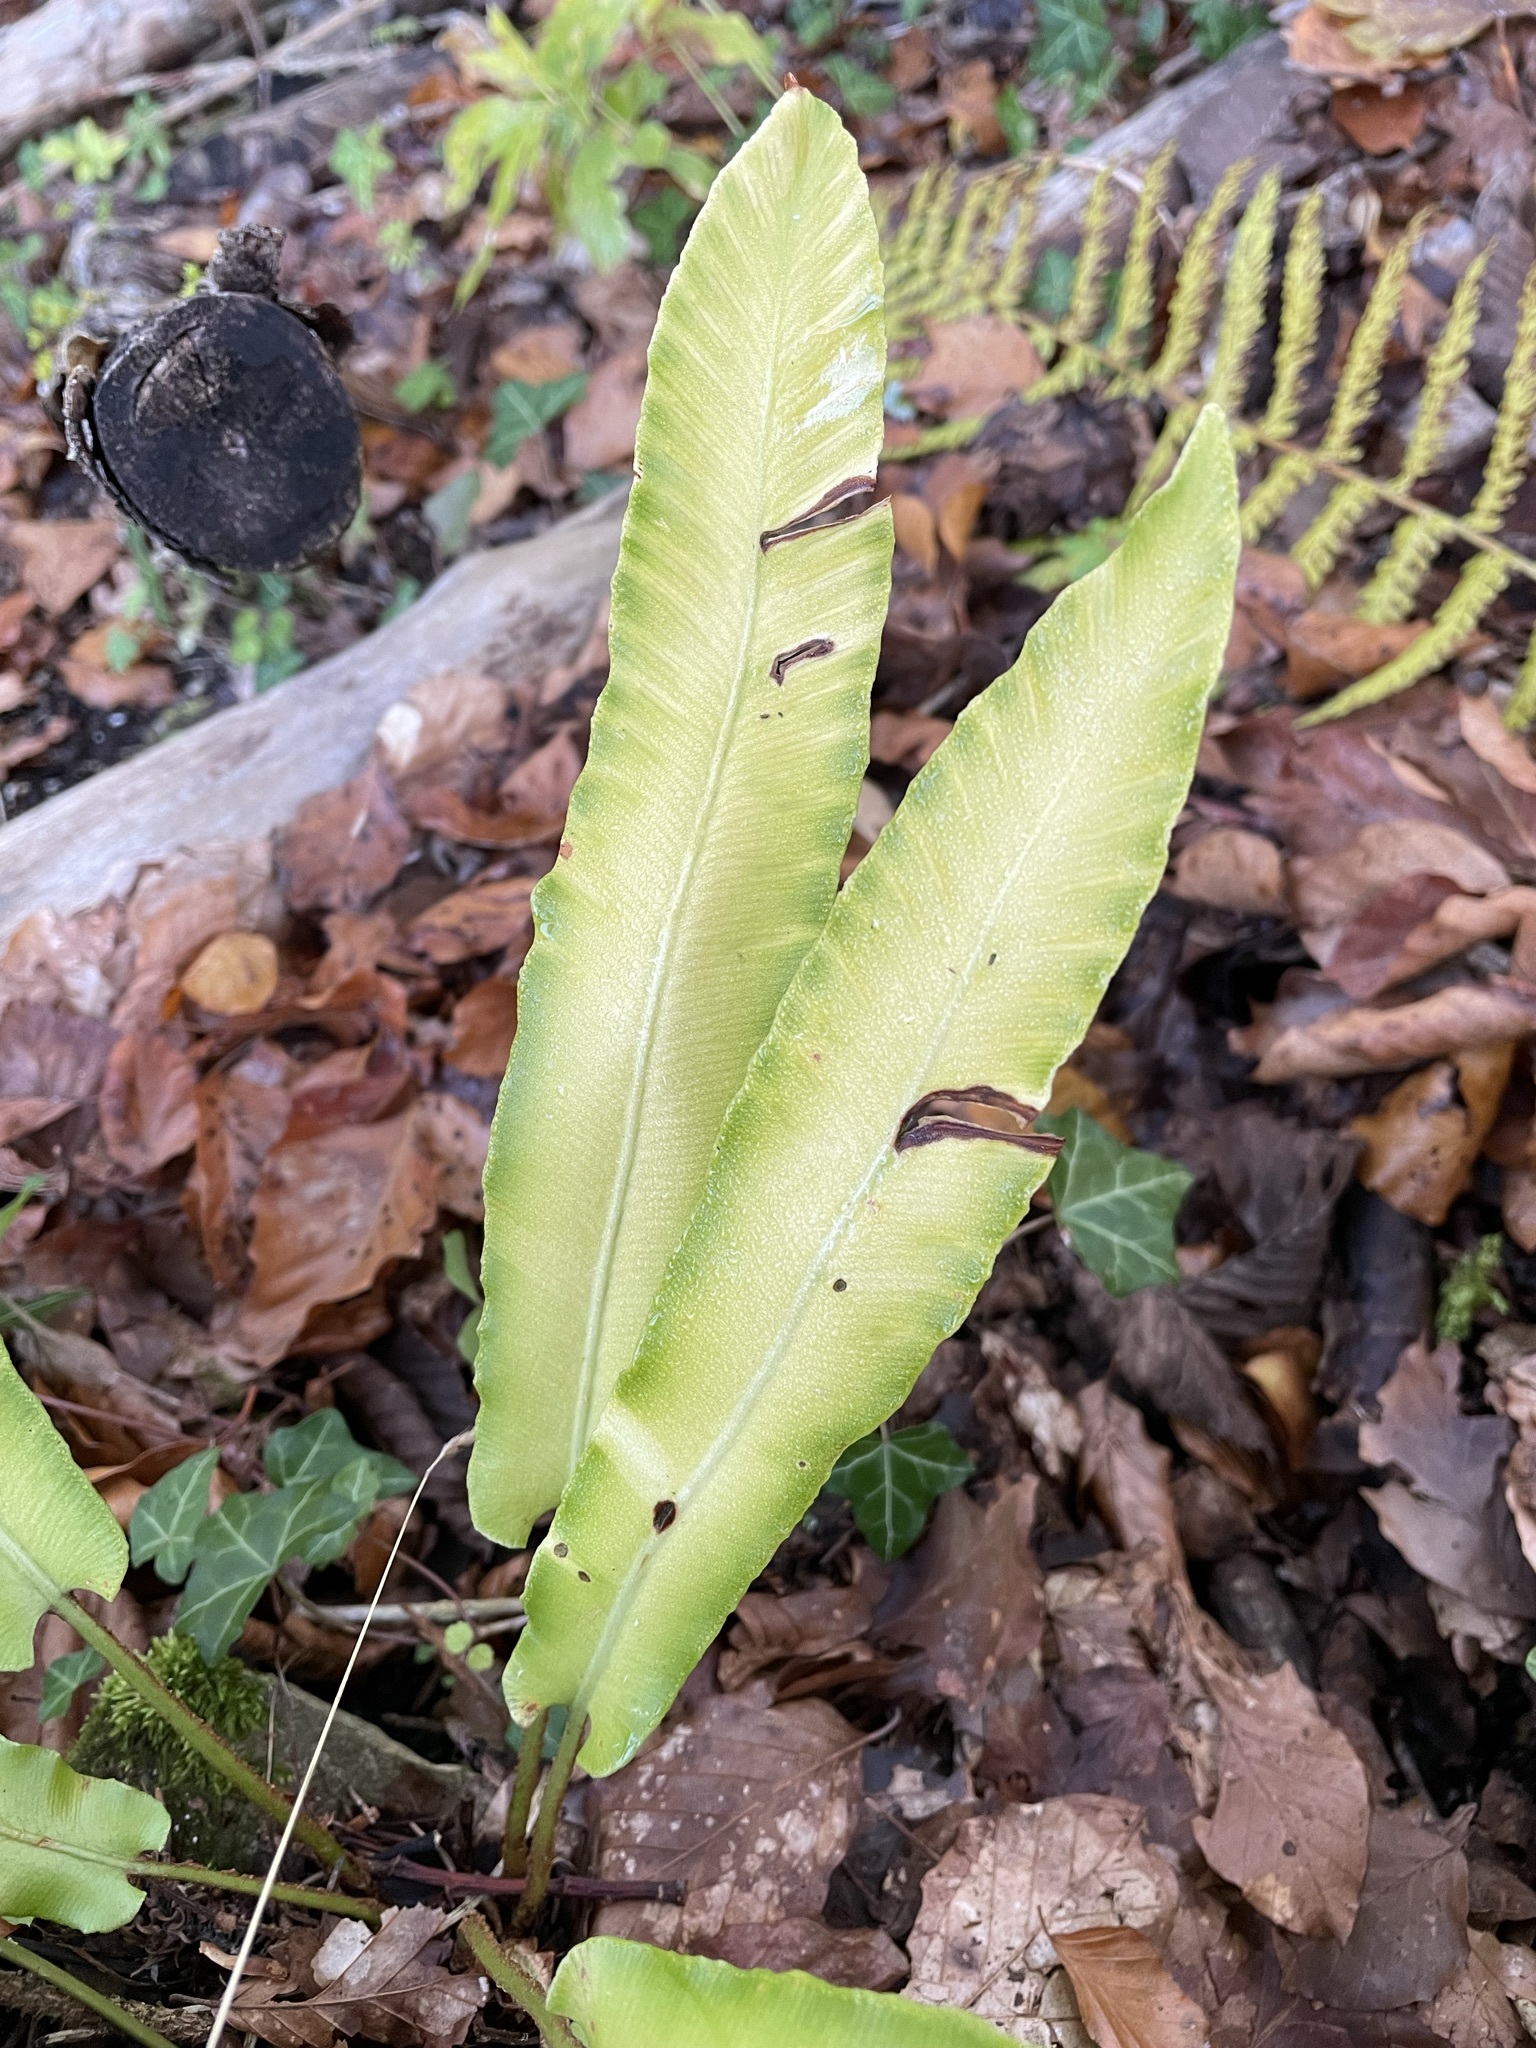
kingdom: Plantae
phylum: Tracheophyta
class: Polypodiopsida
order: Polypodiales
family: Aspleniaceae
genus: Asplenium
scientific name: Asplenium scolopendrium
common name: Hart's-tongue fern
